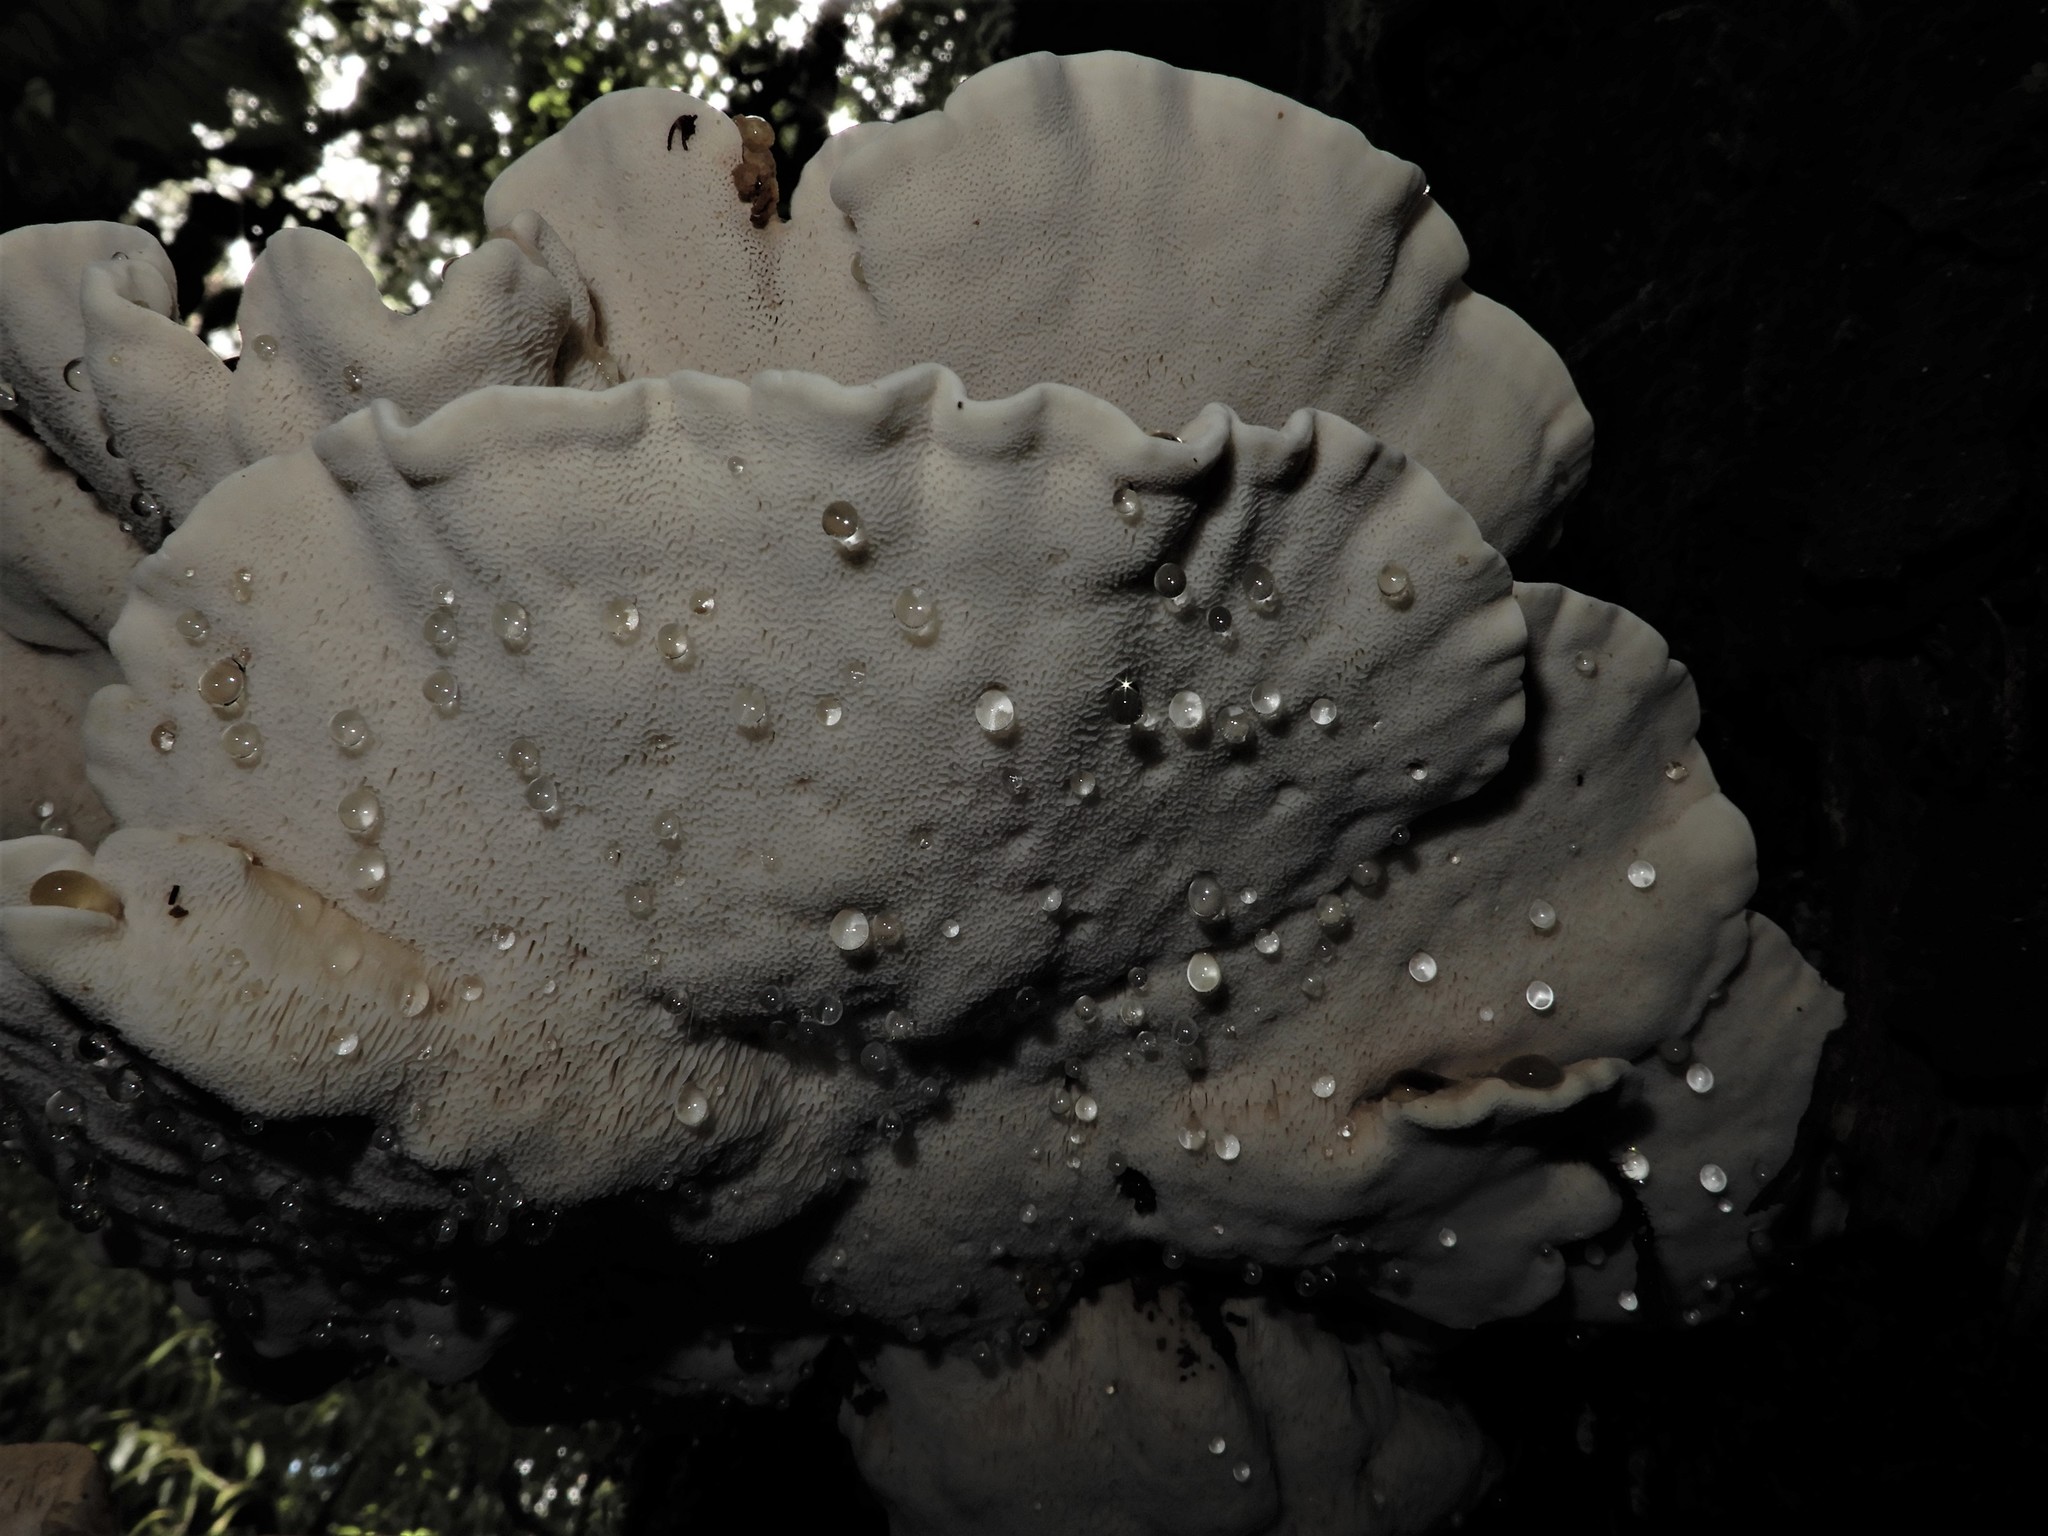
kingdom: Fungi
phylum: Basidiomycota
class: Agaricomycetes
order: Russulales
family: Bondarzewiaceae
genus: Bondarzewia
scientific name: Bondarzewia propria
